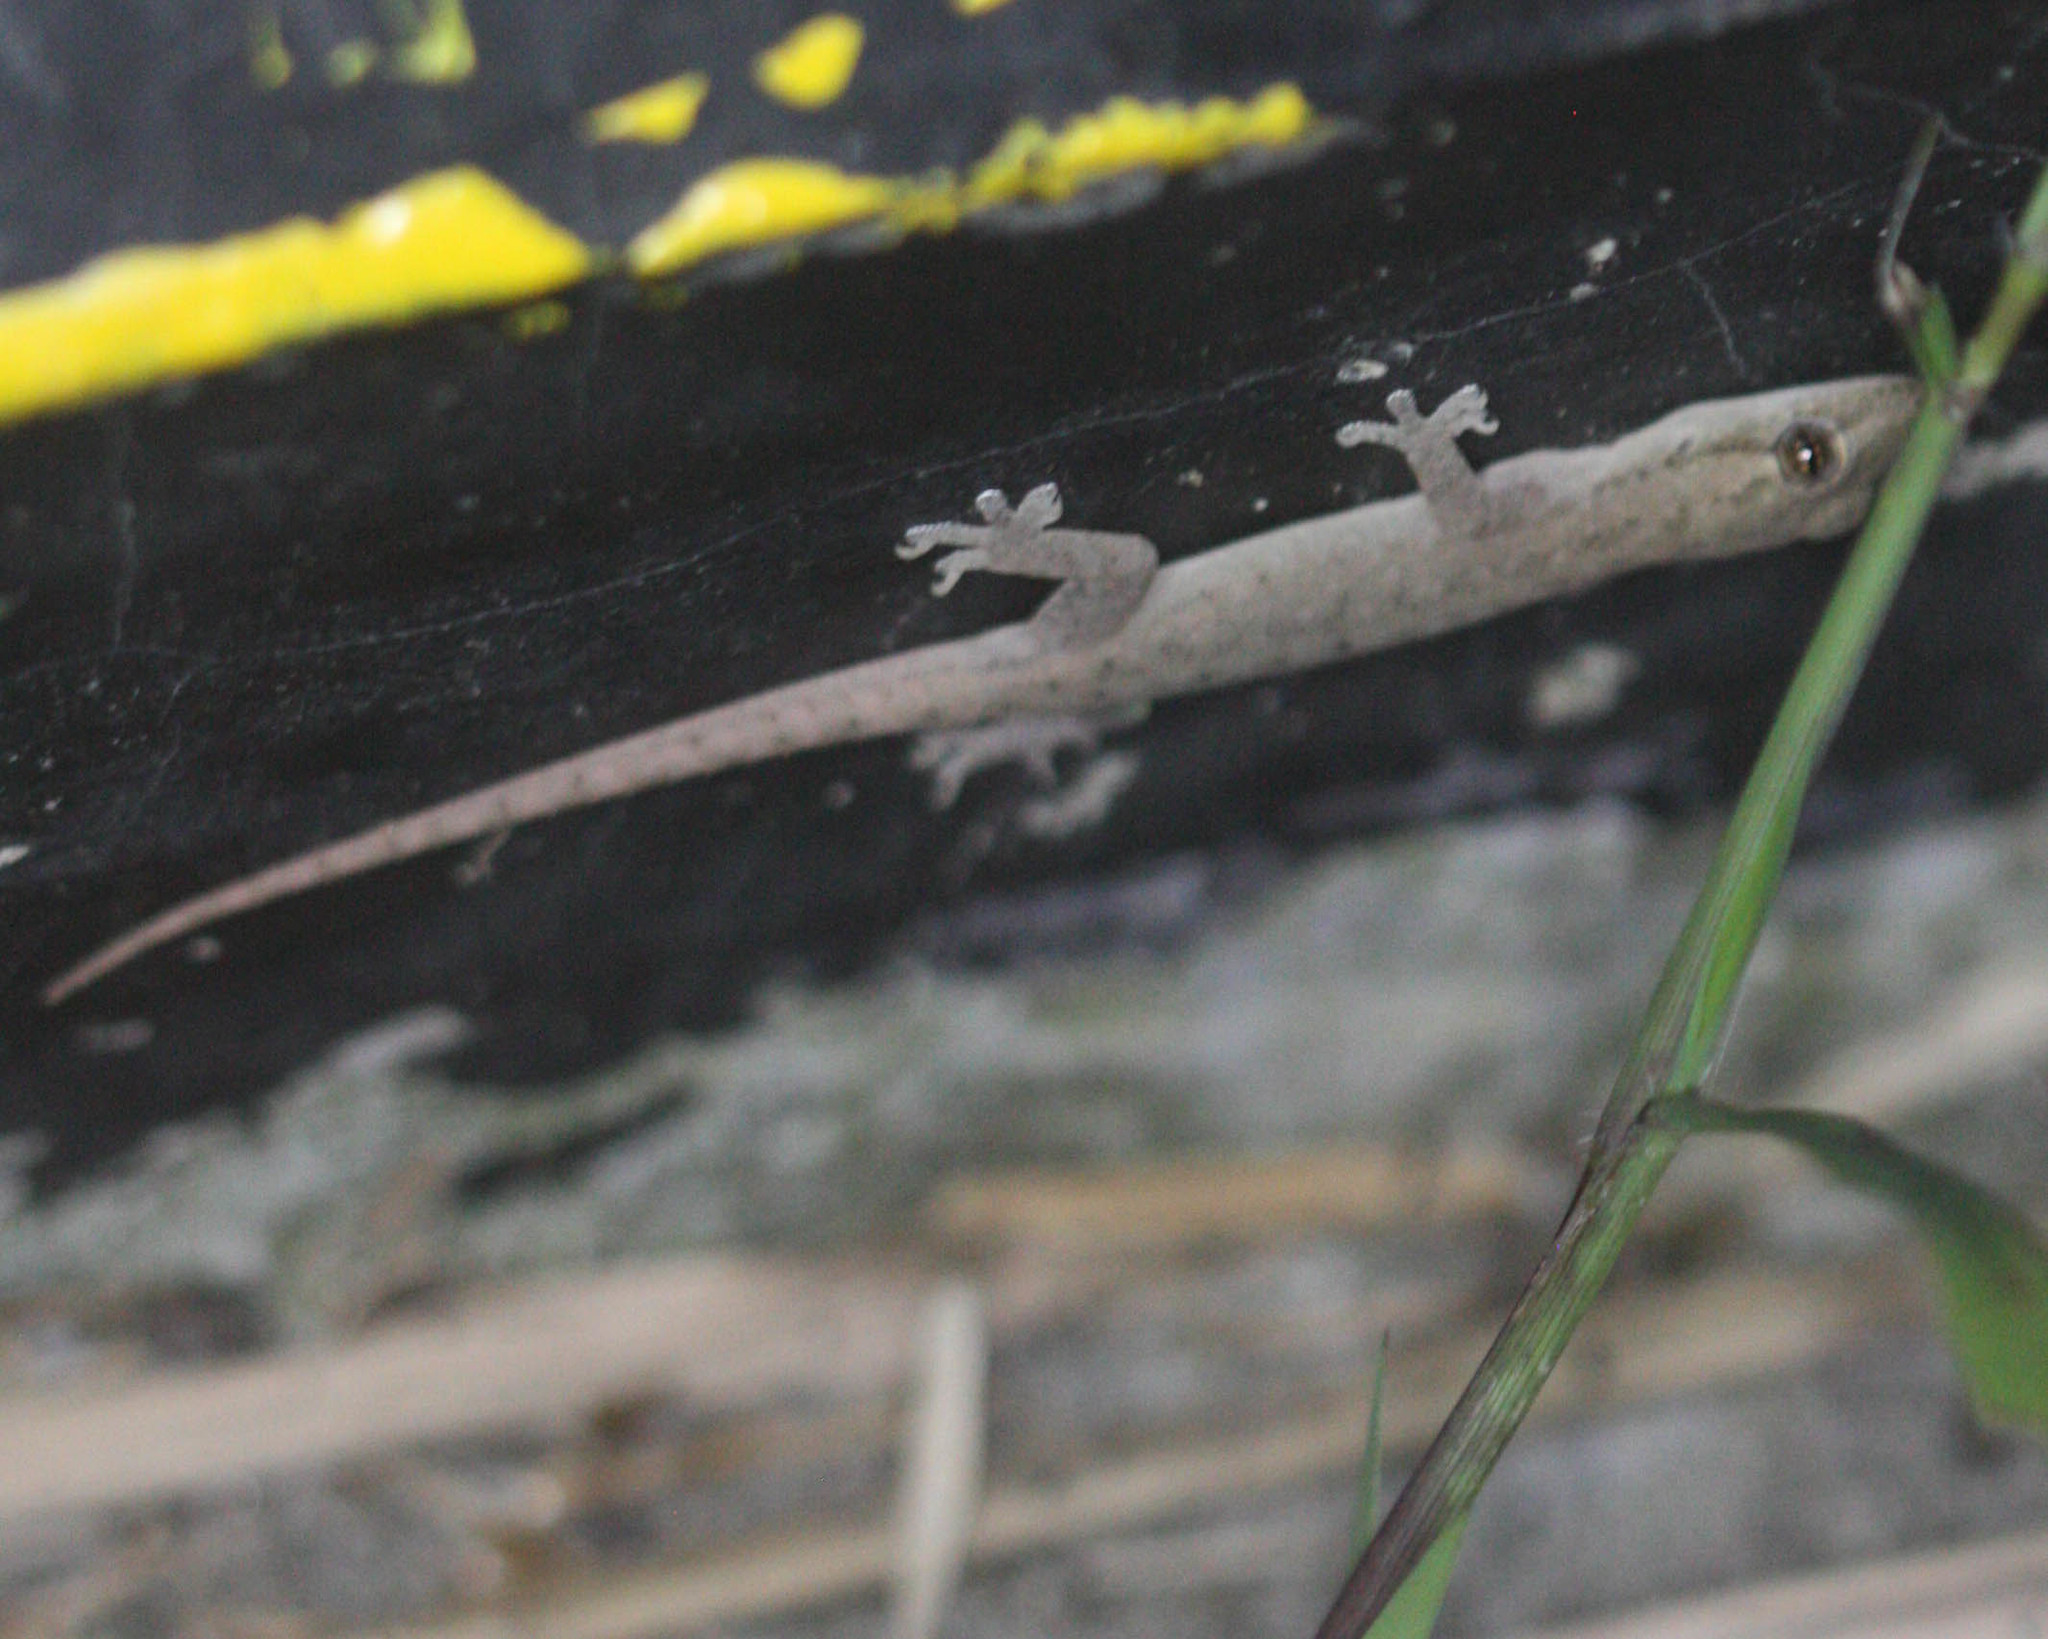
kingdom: Animalia
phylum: Chordata
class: Squamata
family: Gekkonidae
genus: Hemidactylus
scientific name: Hemidactylus frenatus
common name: Common house gecko
